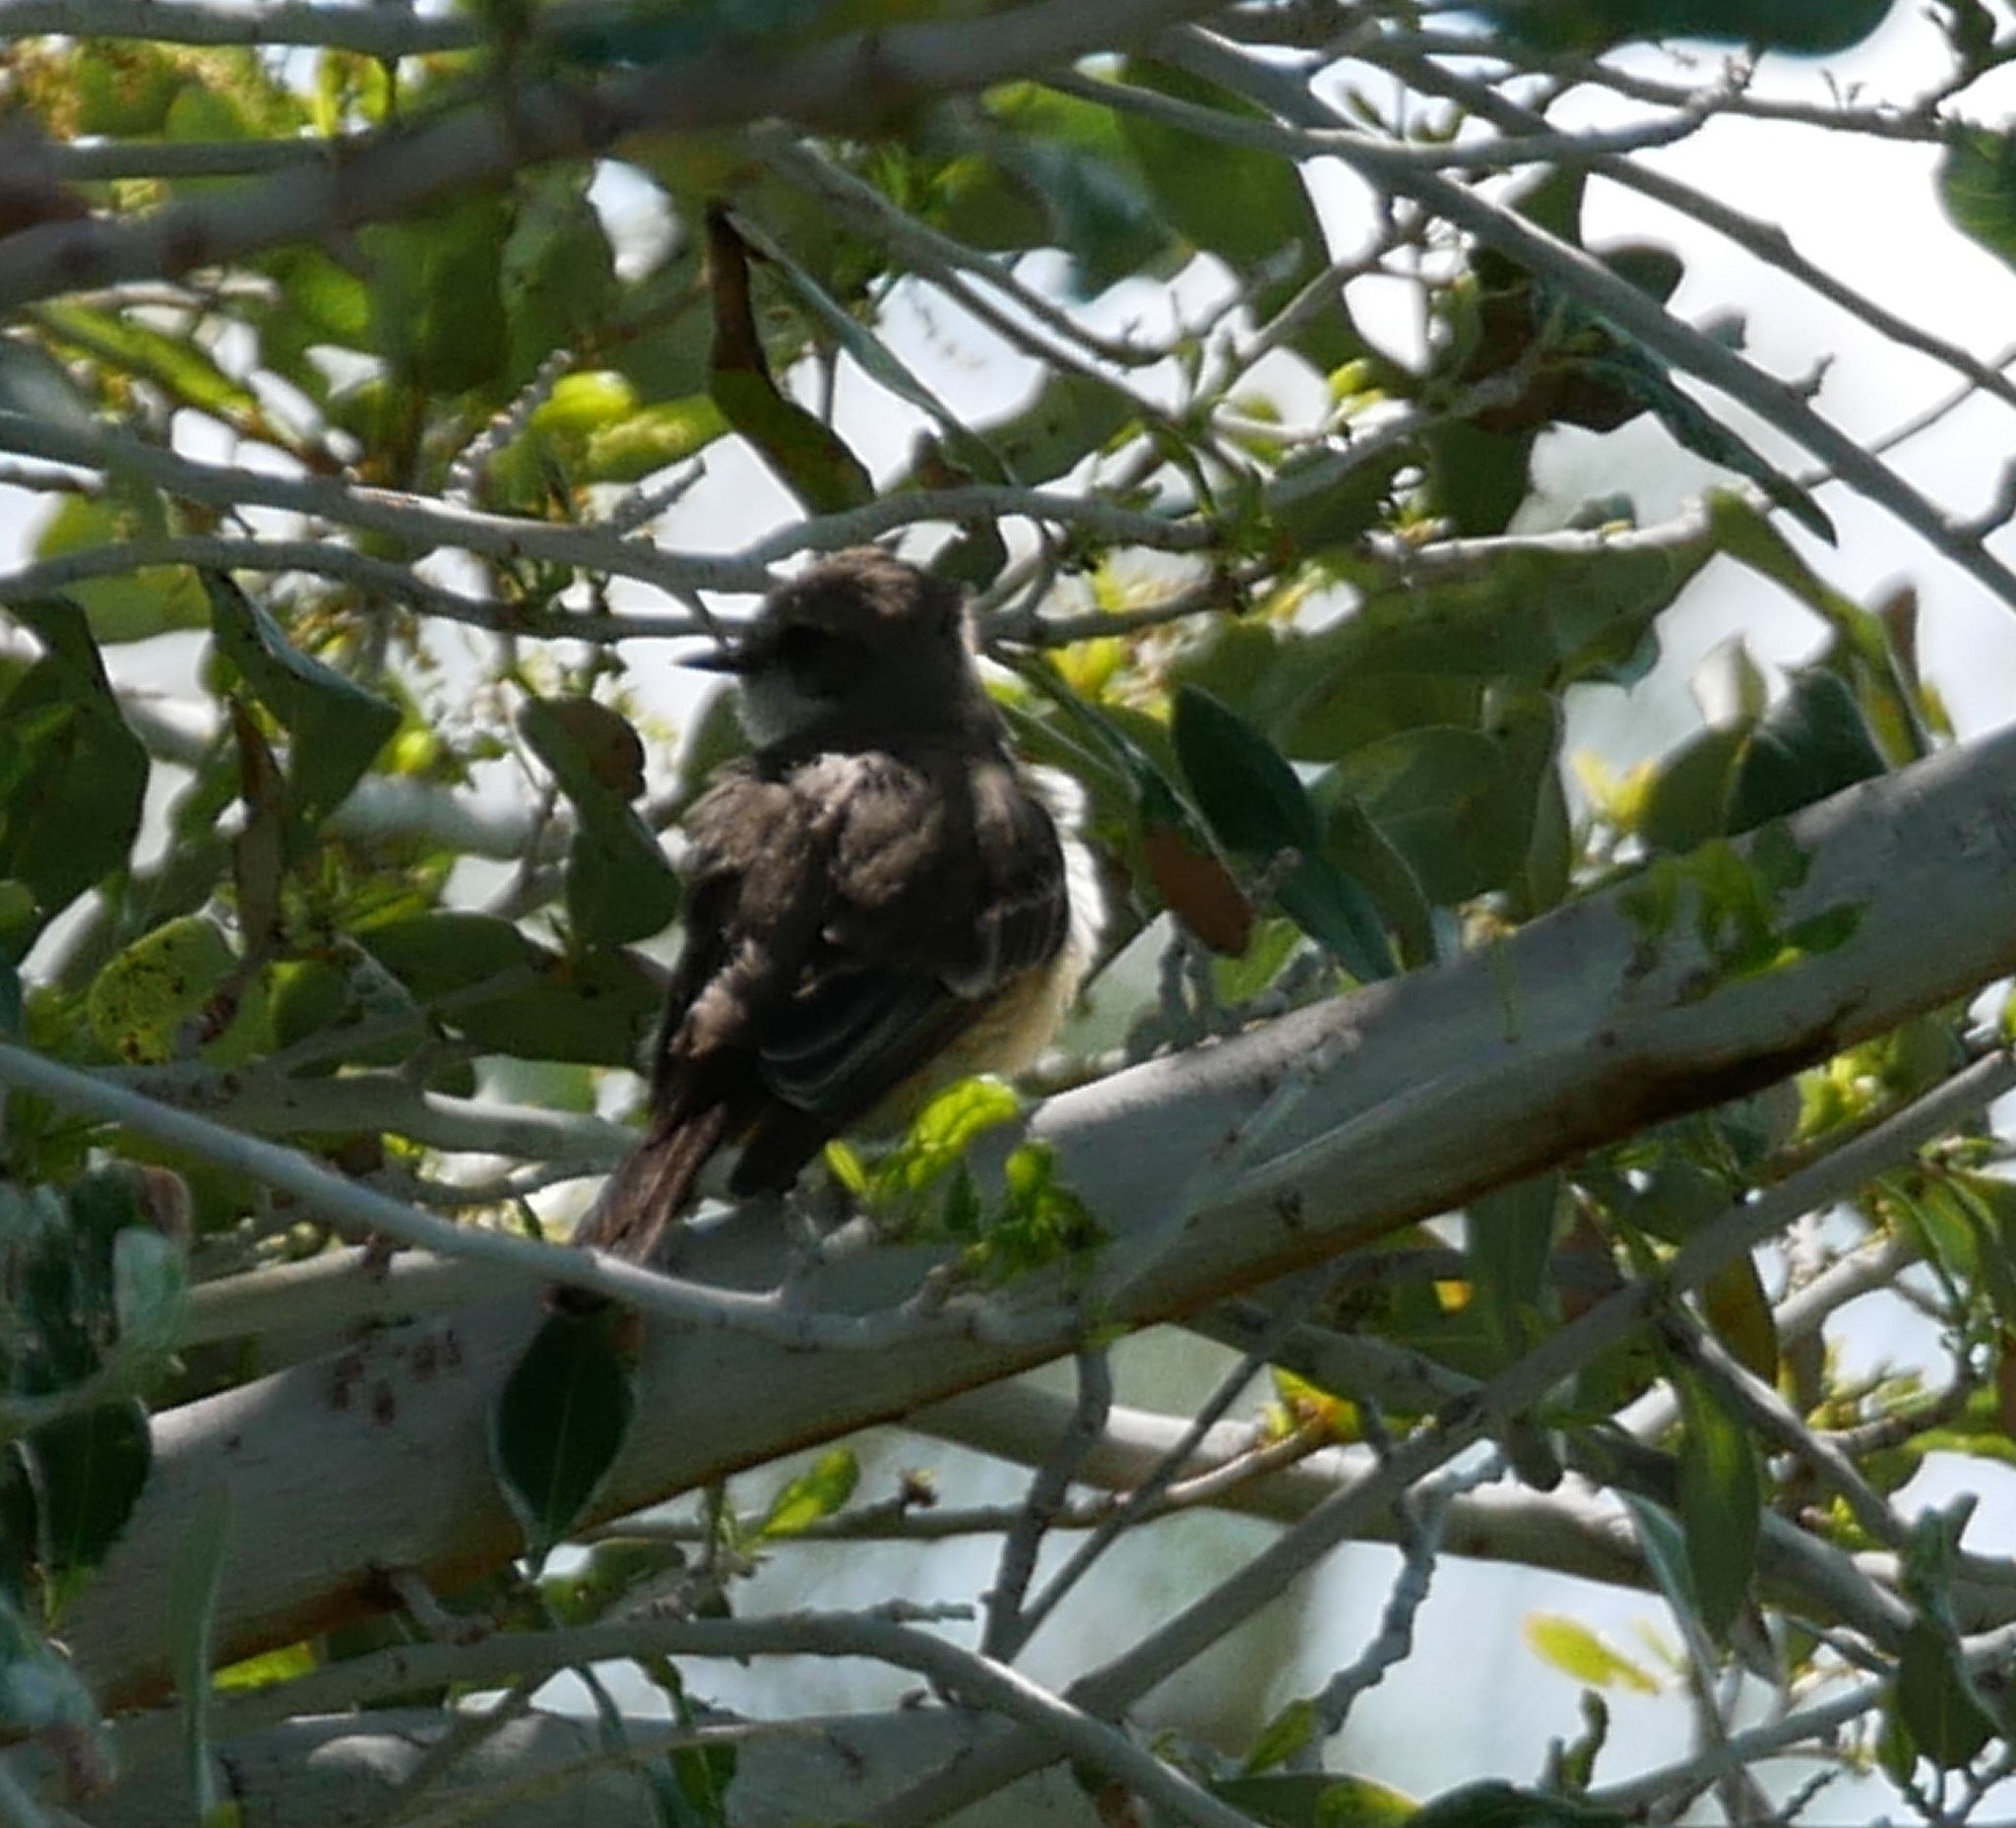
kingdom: Animalia
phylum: Chordata
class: Aves
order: Passeriformes
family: Tyrannidae
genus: Pyrocephalus
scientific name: Pyrocephalus rubinus
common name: Vermilion flycatcher
